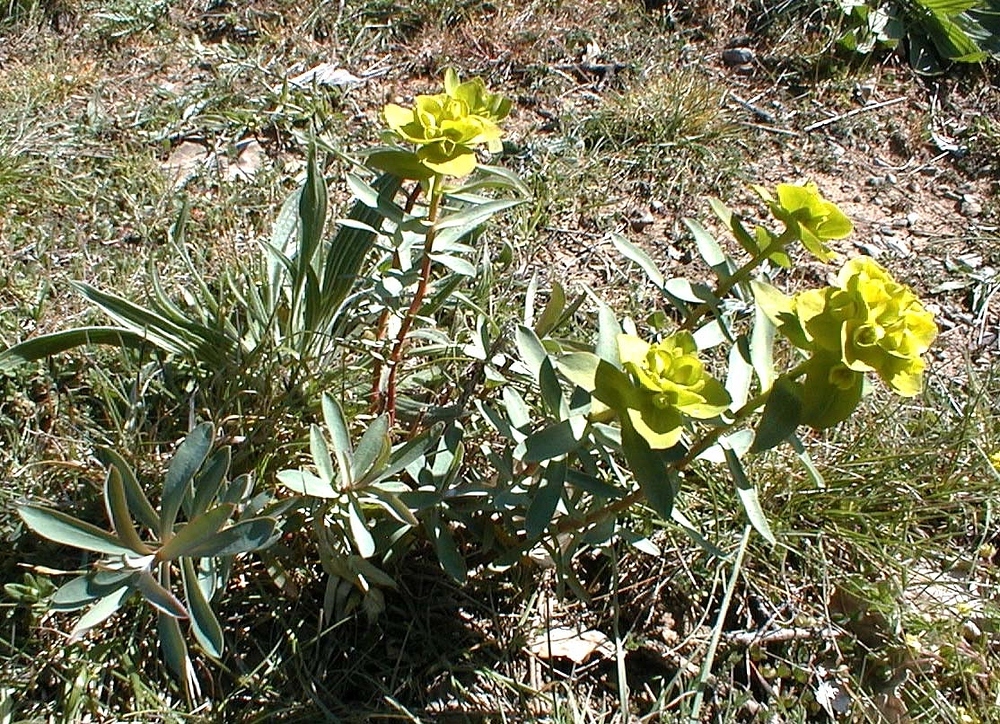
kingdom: Plantae
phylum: Tracheophyta
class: Magnoliopsida
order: Malpighiales
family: Euphorbiaceae
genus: Euphorbia
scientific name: Euphorbia nicaeensis
